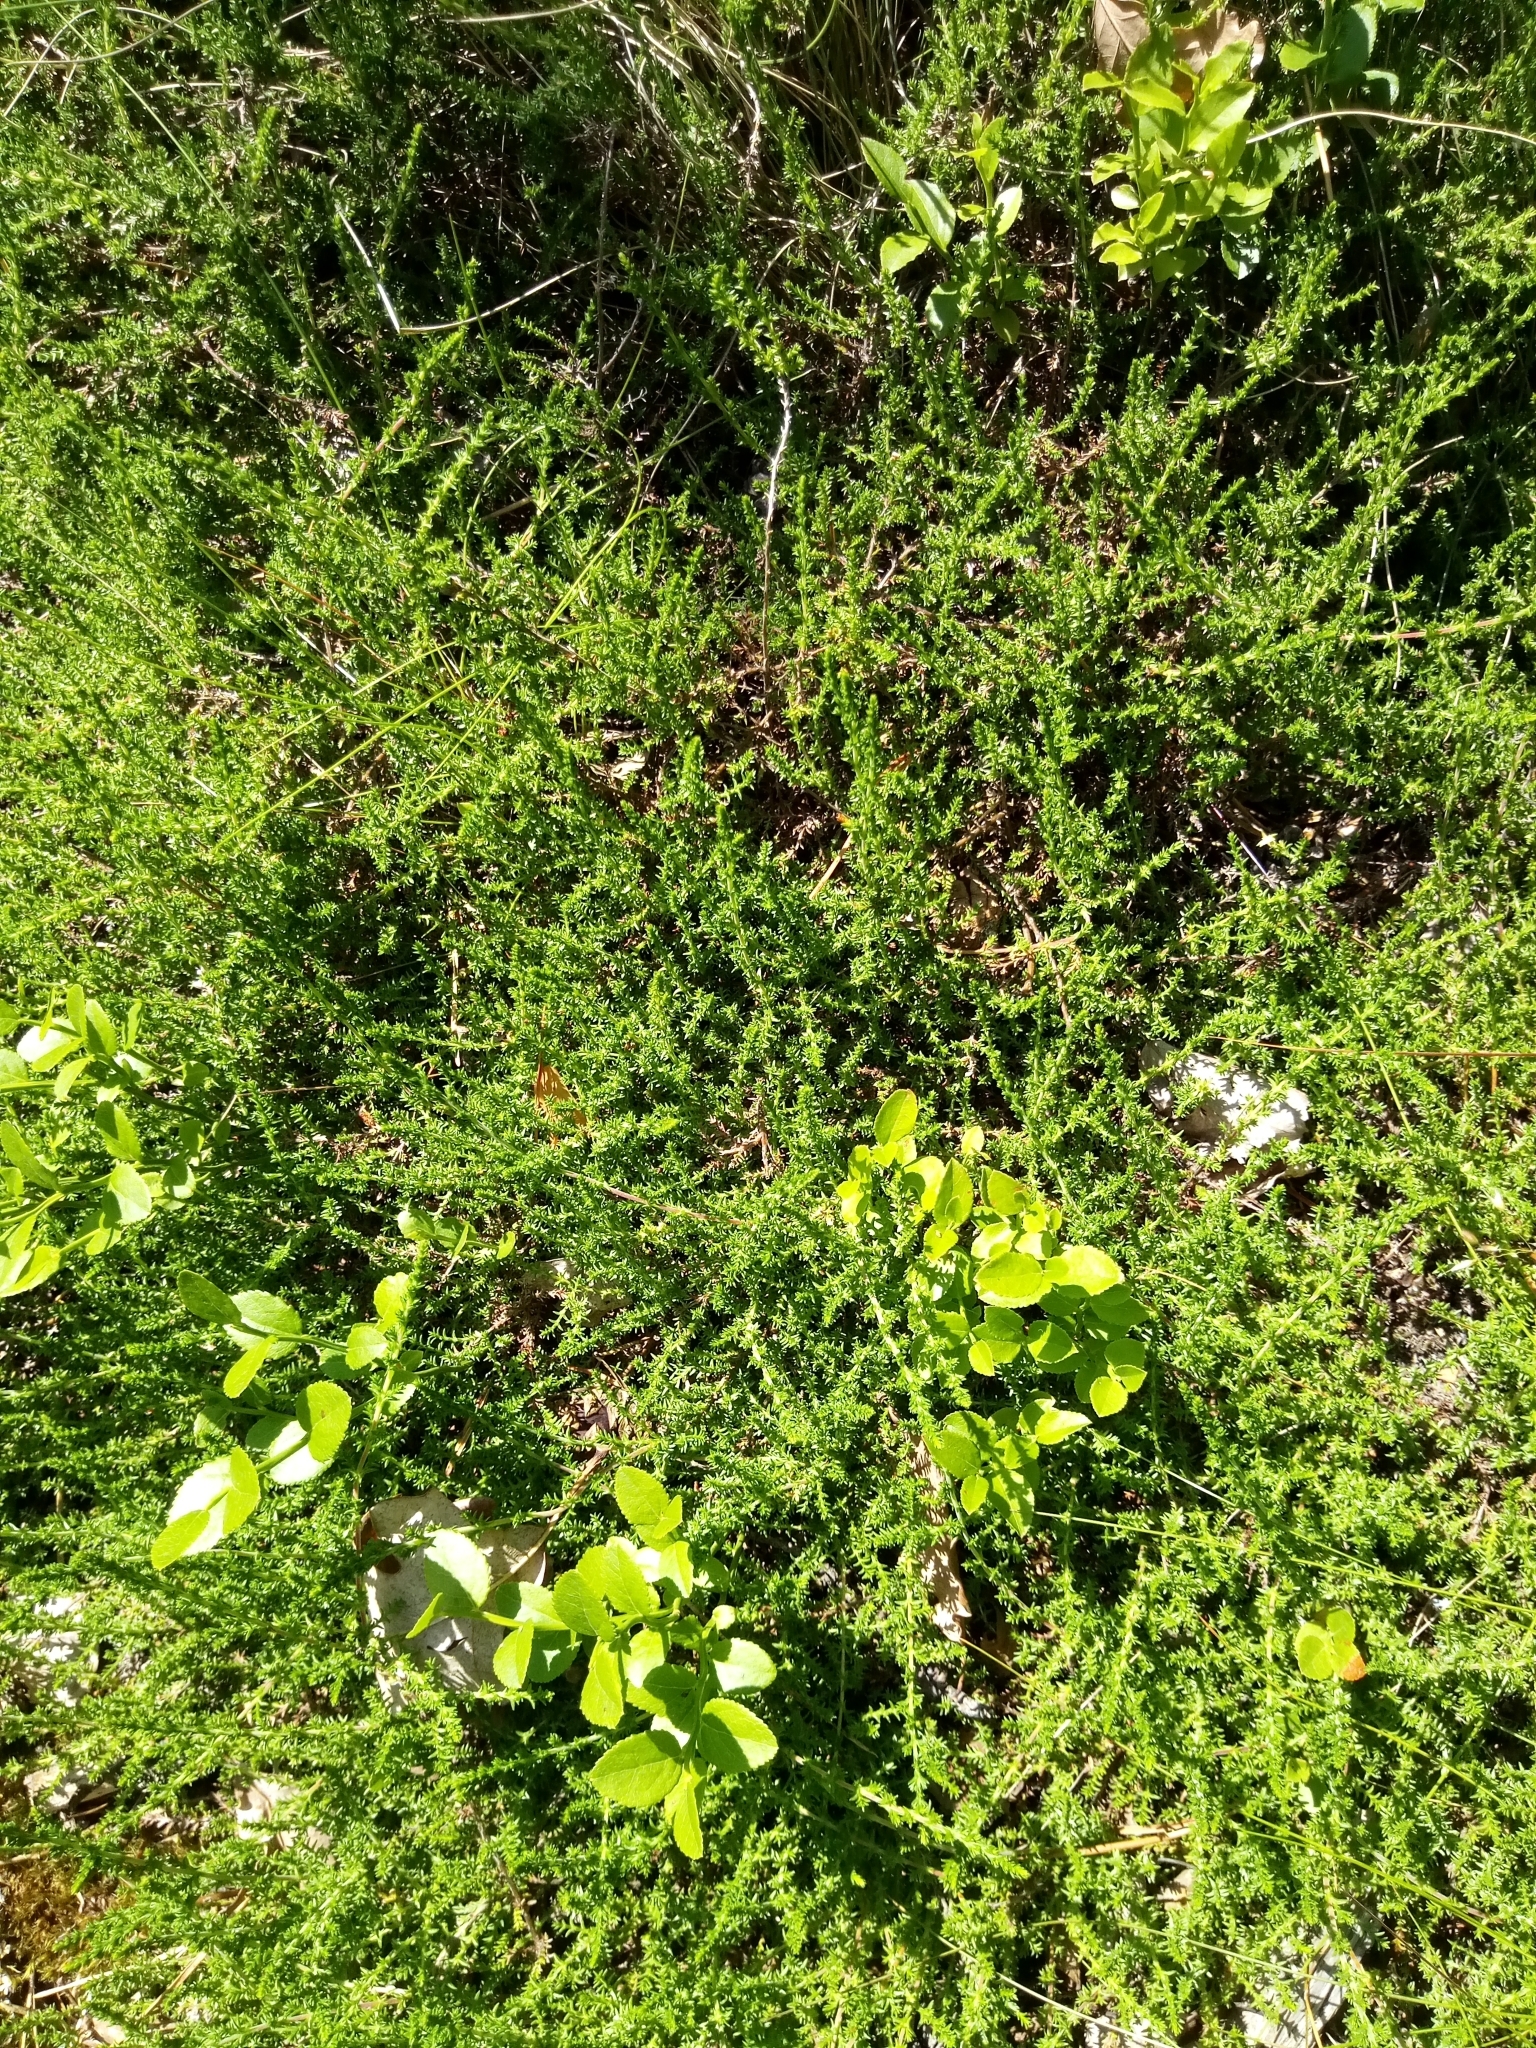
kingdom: Plantae
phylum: Tracheophyta
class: Magnoliopsida
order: Ericales
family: Ericaceae
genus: Calluna
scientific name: Calluna vulgaris
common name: Heather
